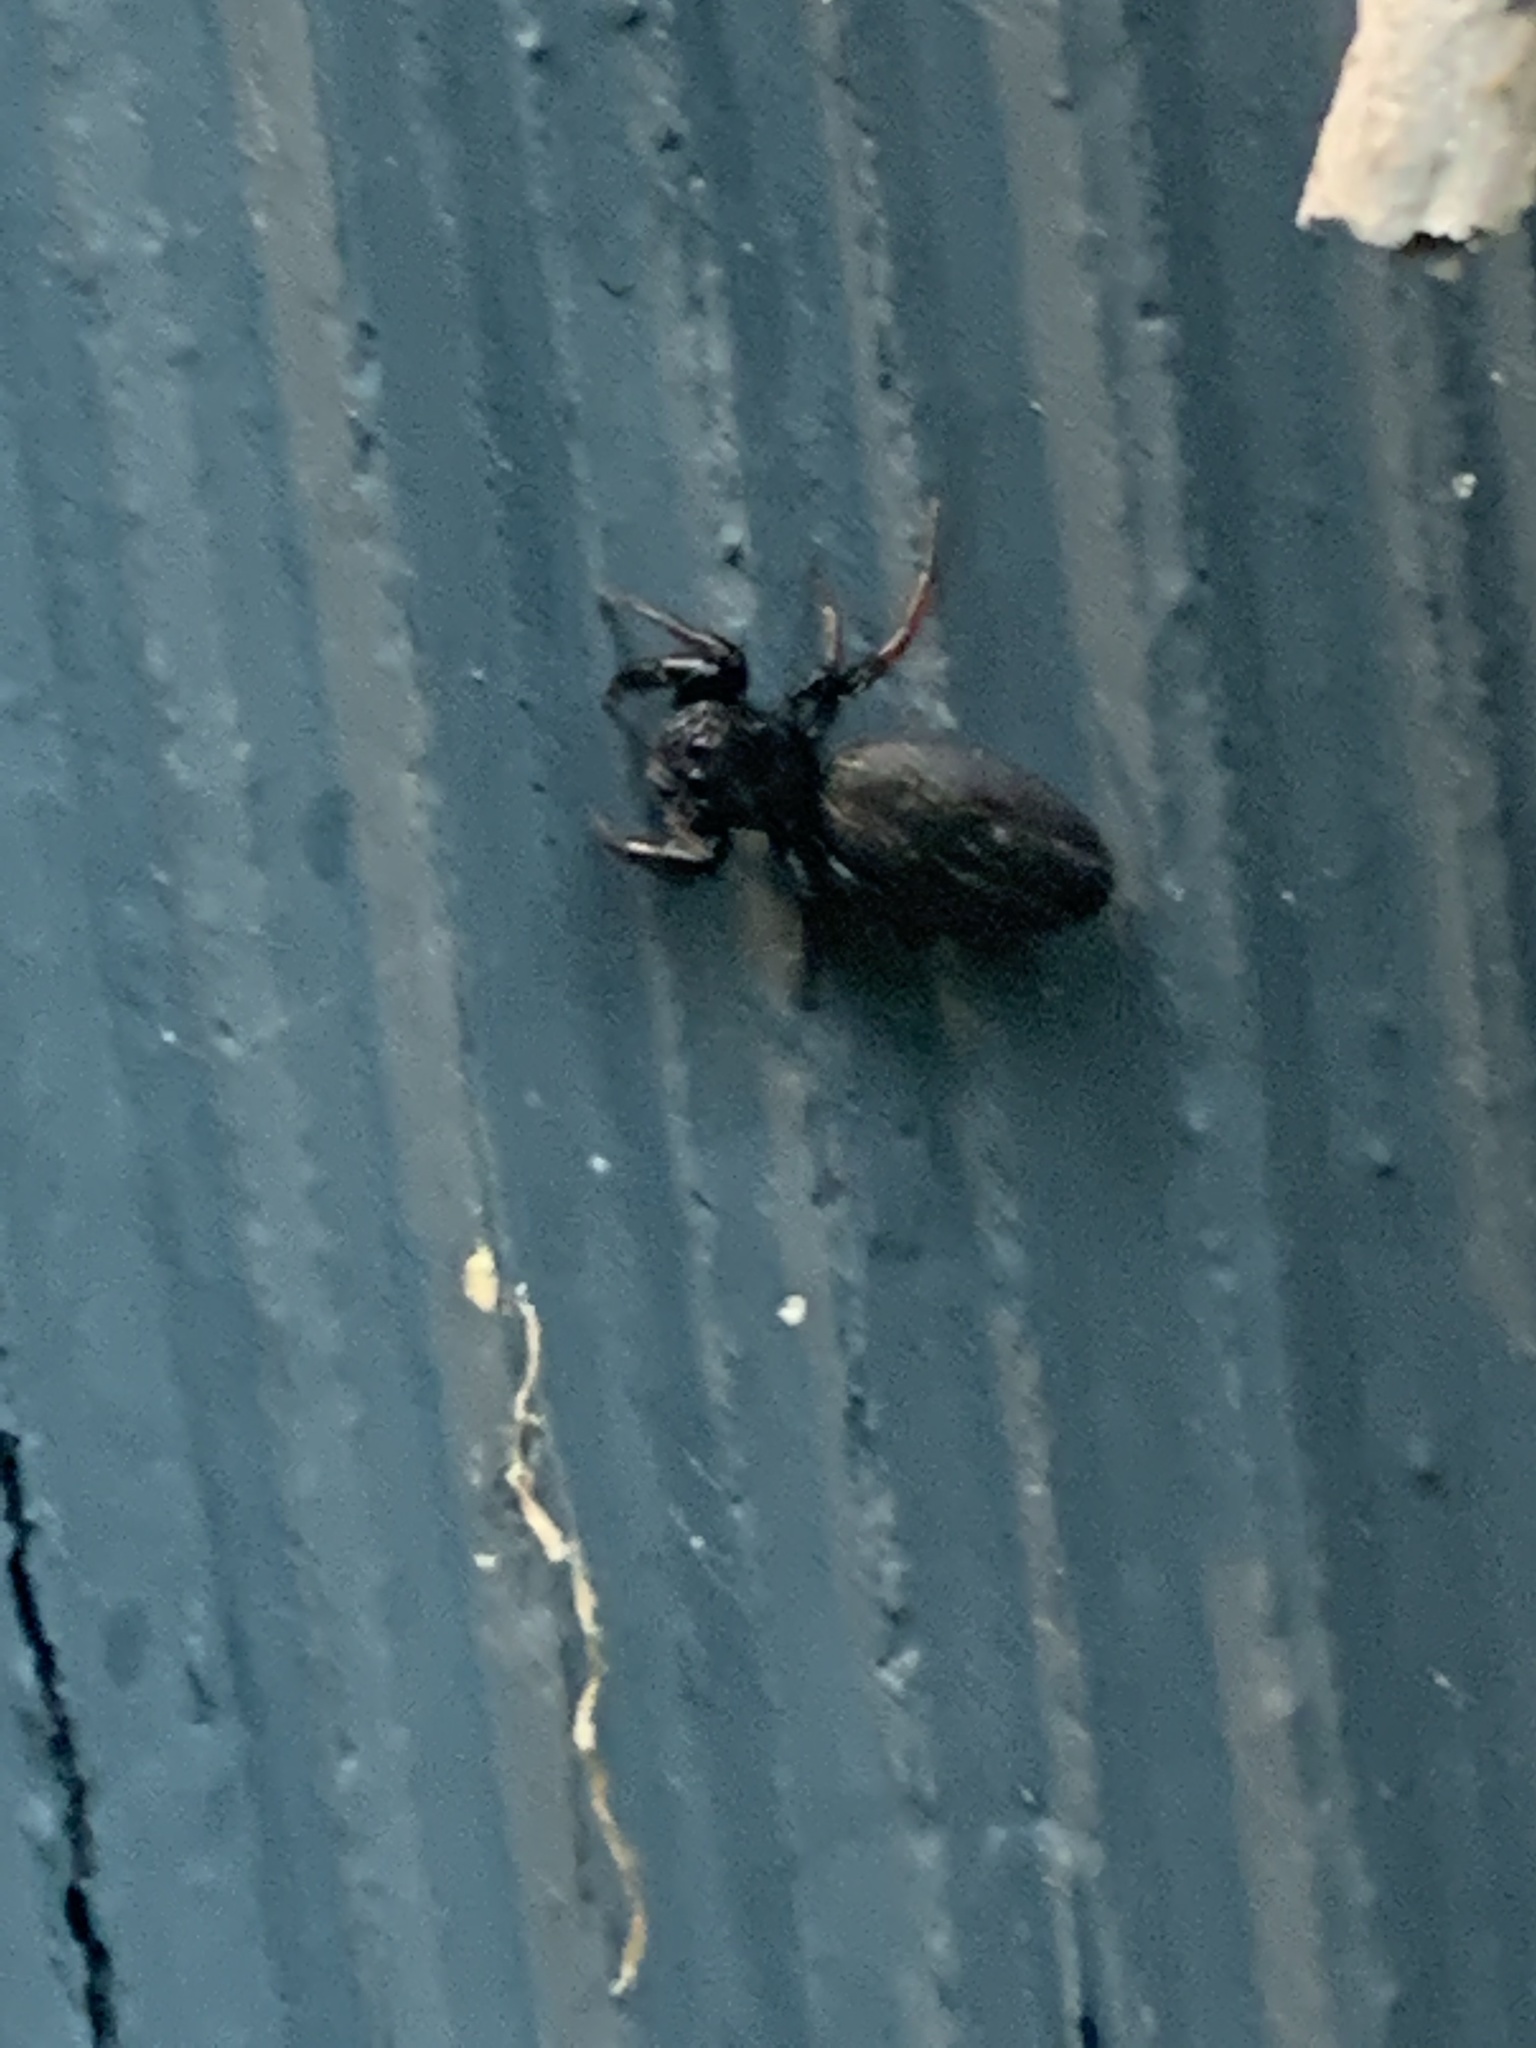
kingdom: Animalia
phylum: Arthropoda
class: Arachnida
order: Araneae
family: Salticidae
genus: Metacyrba
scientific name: Metacyrba taeniola
